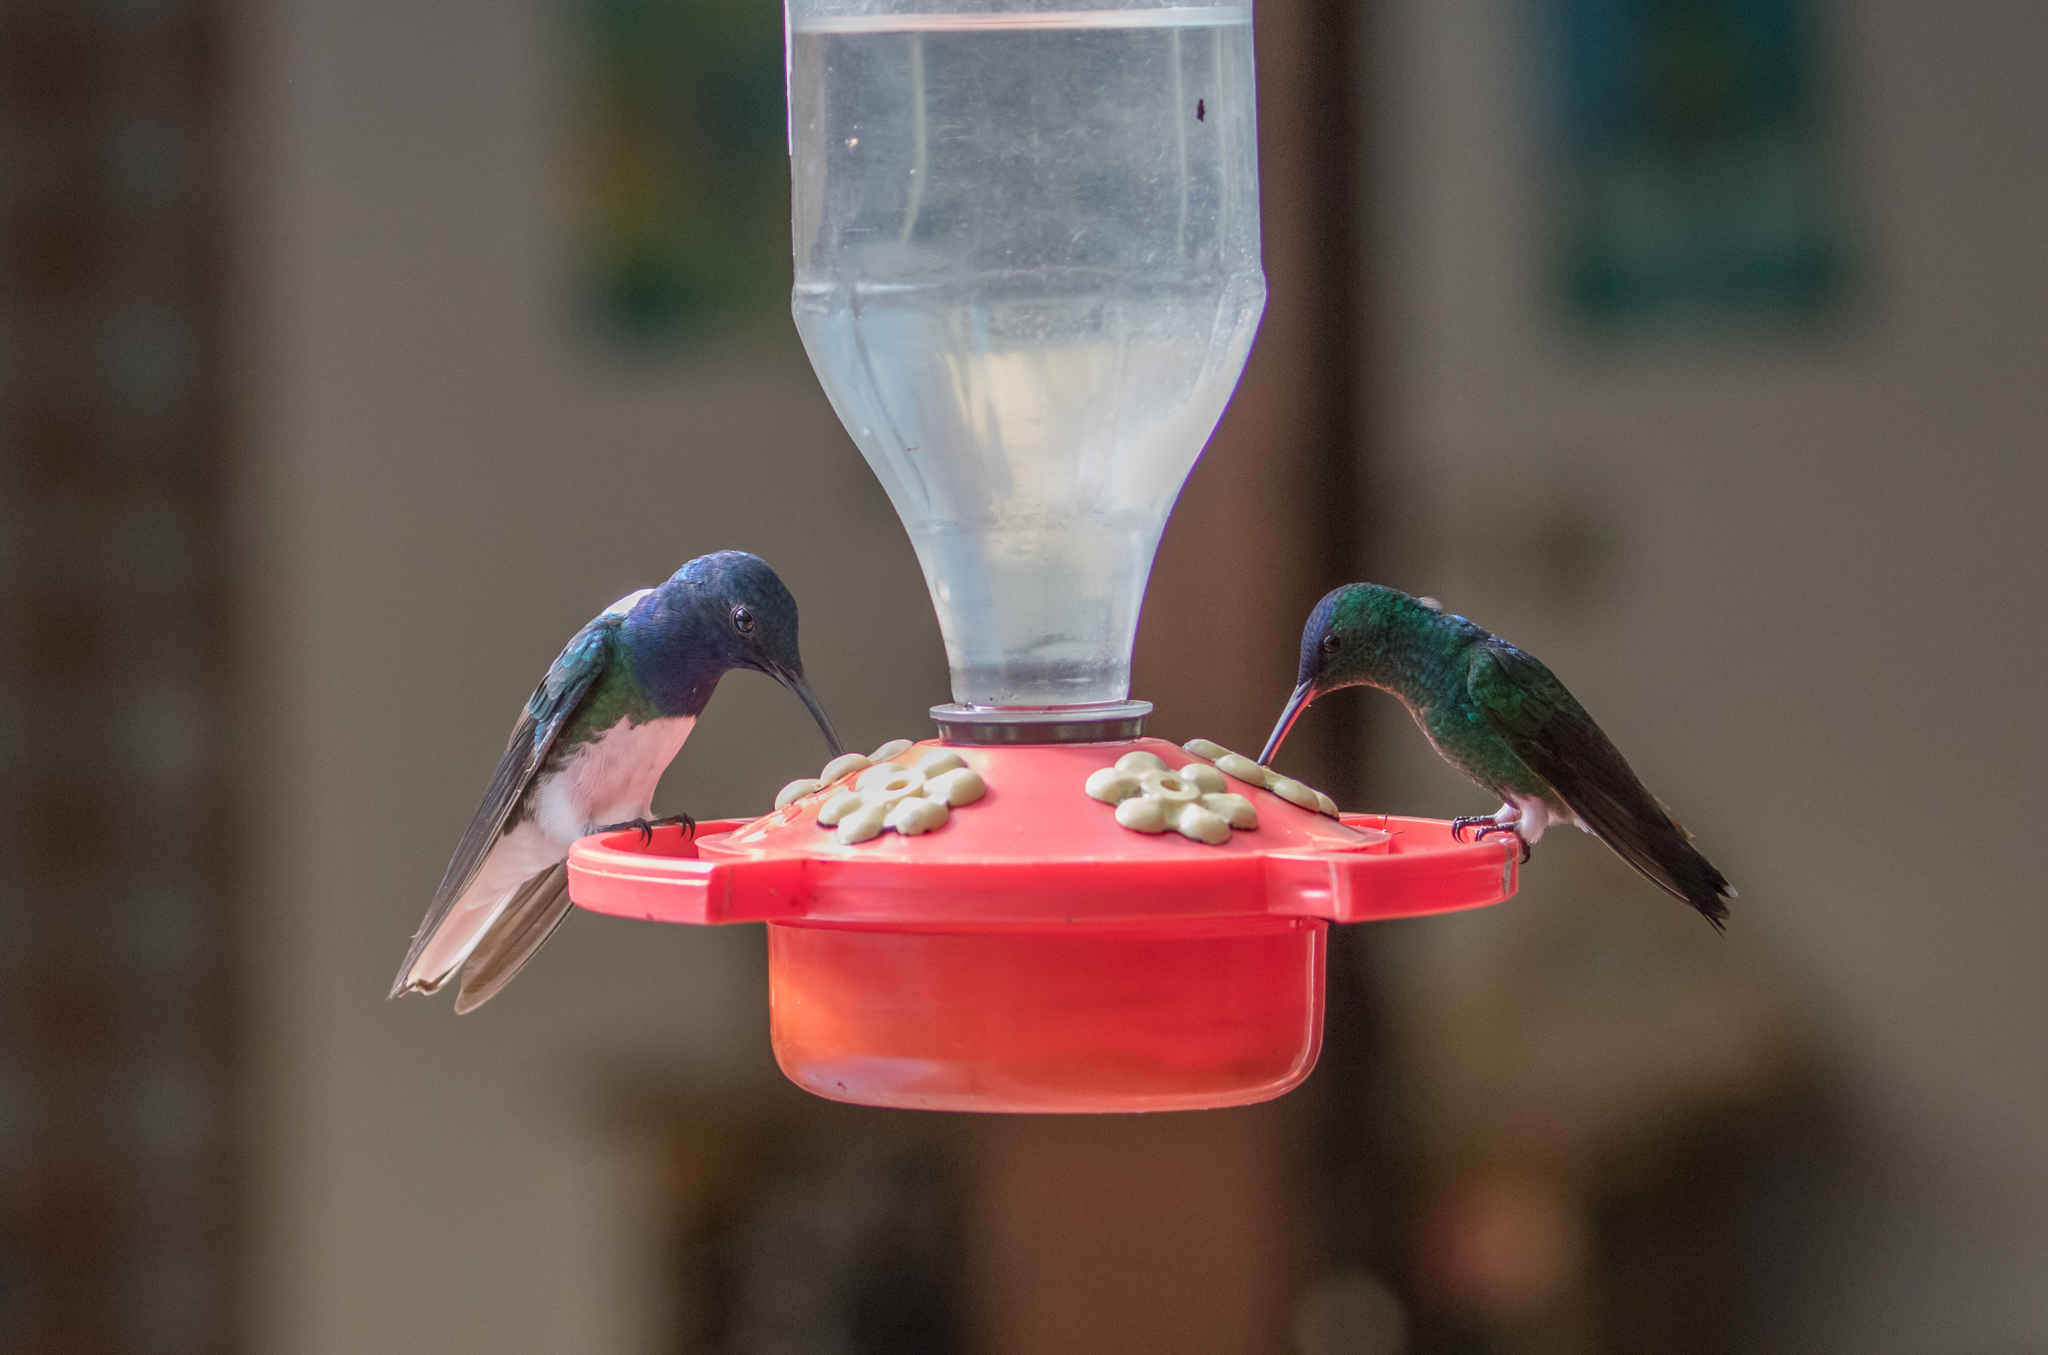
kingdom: Animalia
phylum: Chordata
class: Aves
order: Apodiformes
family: Trochilidae
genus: Saucerottia
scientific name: Saucerottia cyanifrons
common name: Indigo-capped hummingbird
